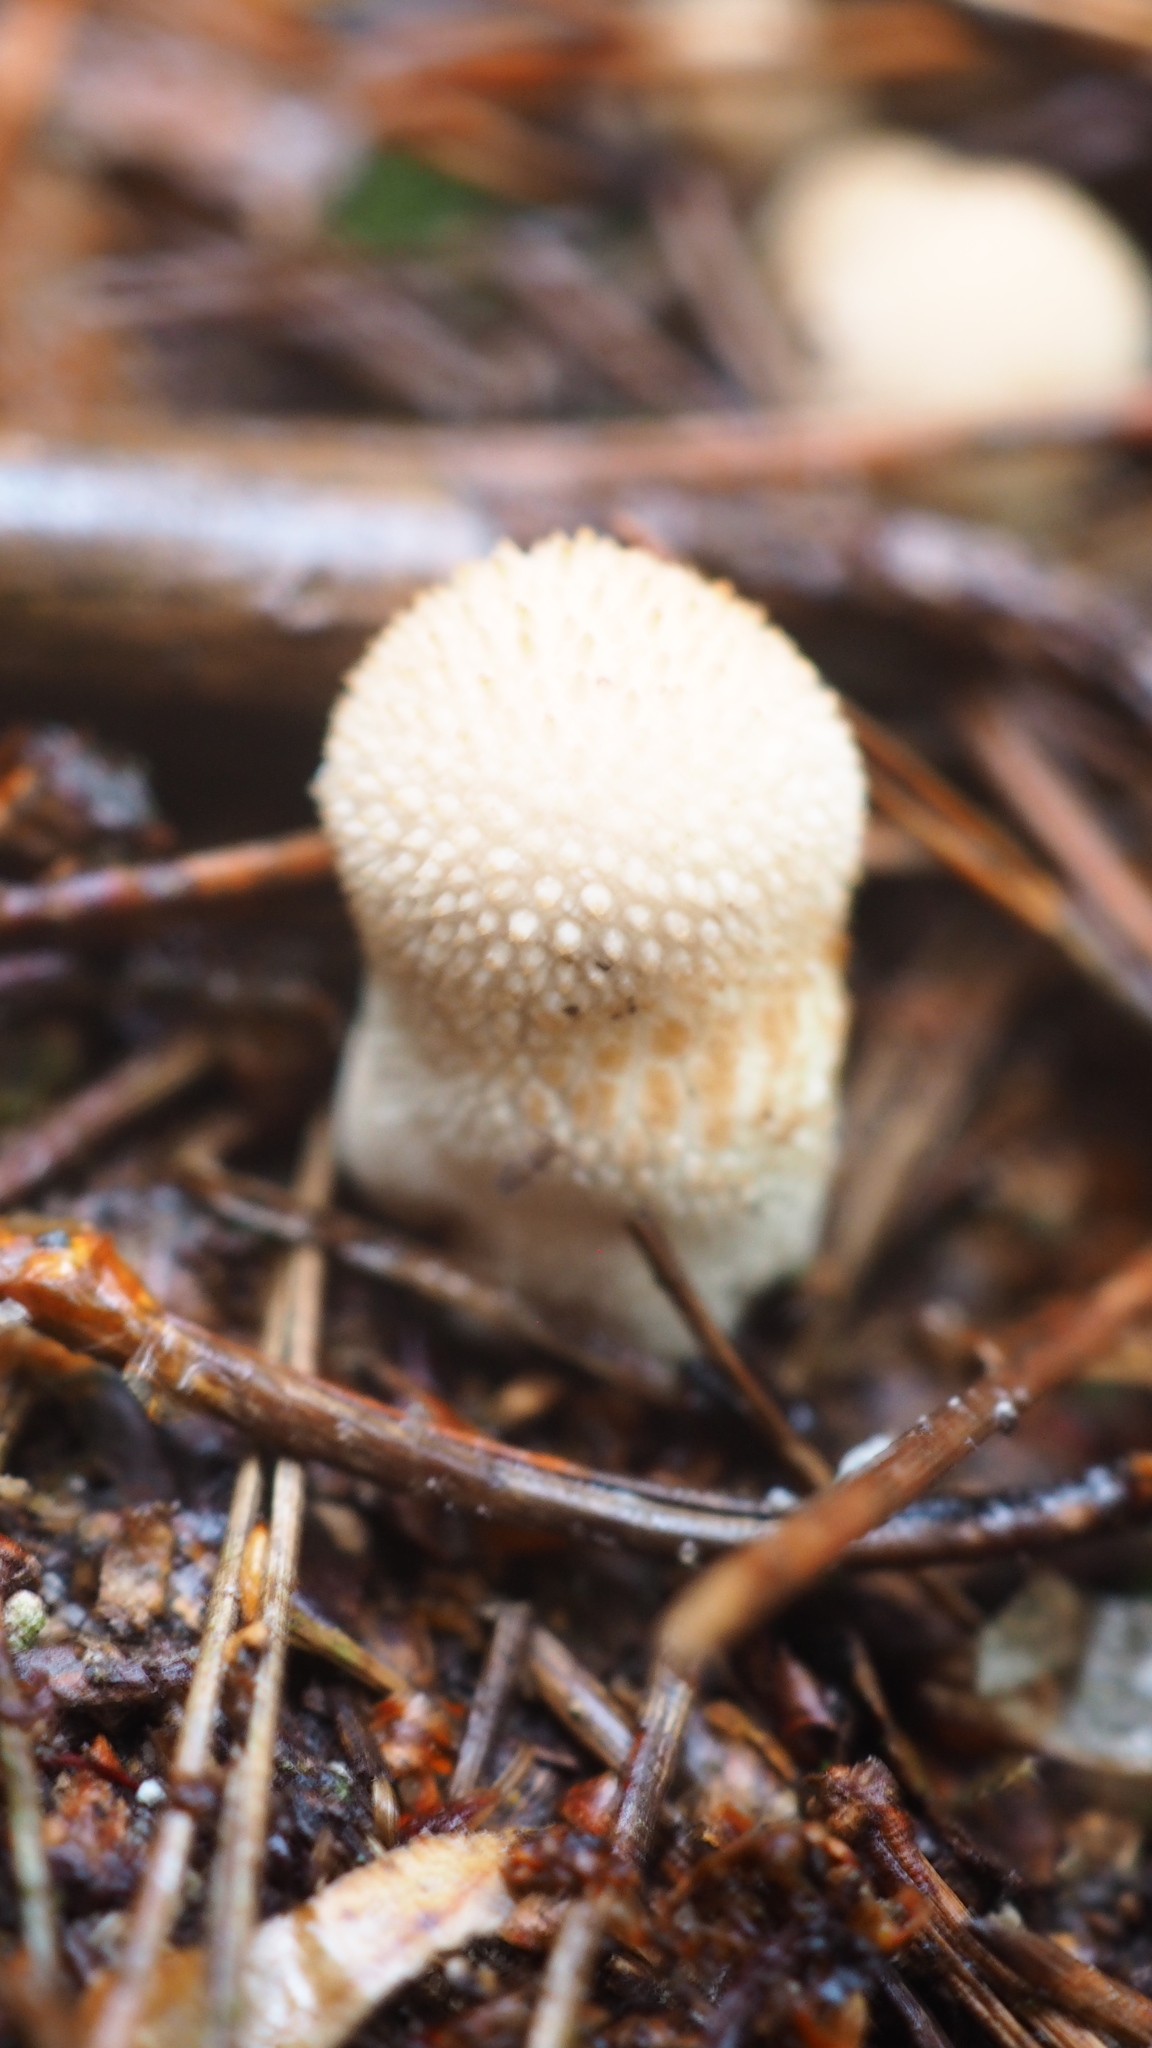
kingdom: Fungi
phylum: Basidiomycota
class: Agaricomycetes
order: Agaricales
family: Lycoperdaceae
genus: Lycoperdon
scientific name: Lycoperdon perlatum
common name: Common puffball
